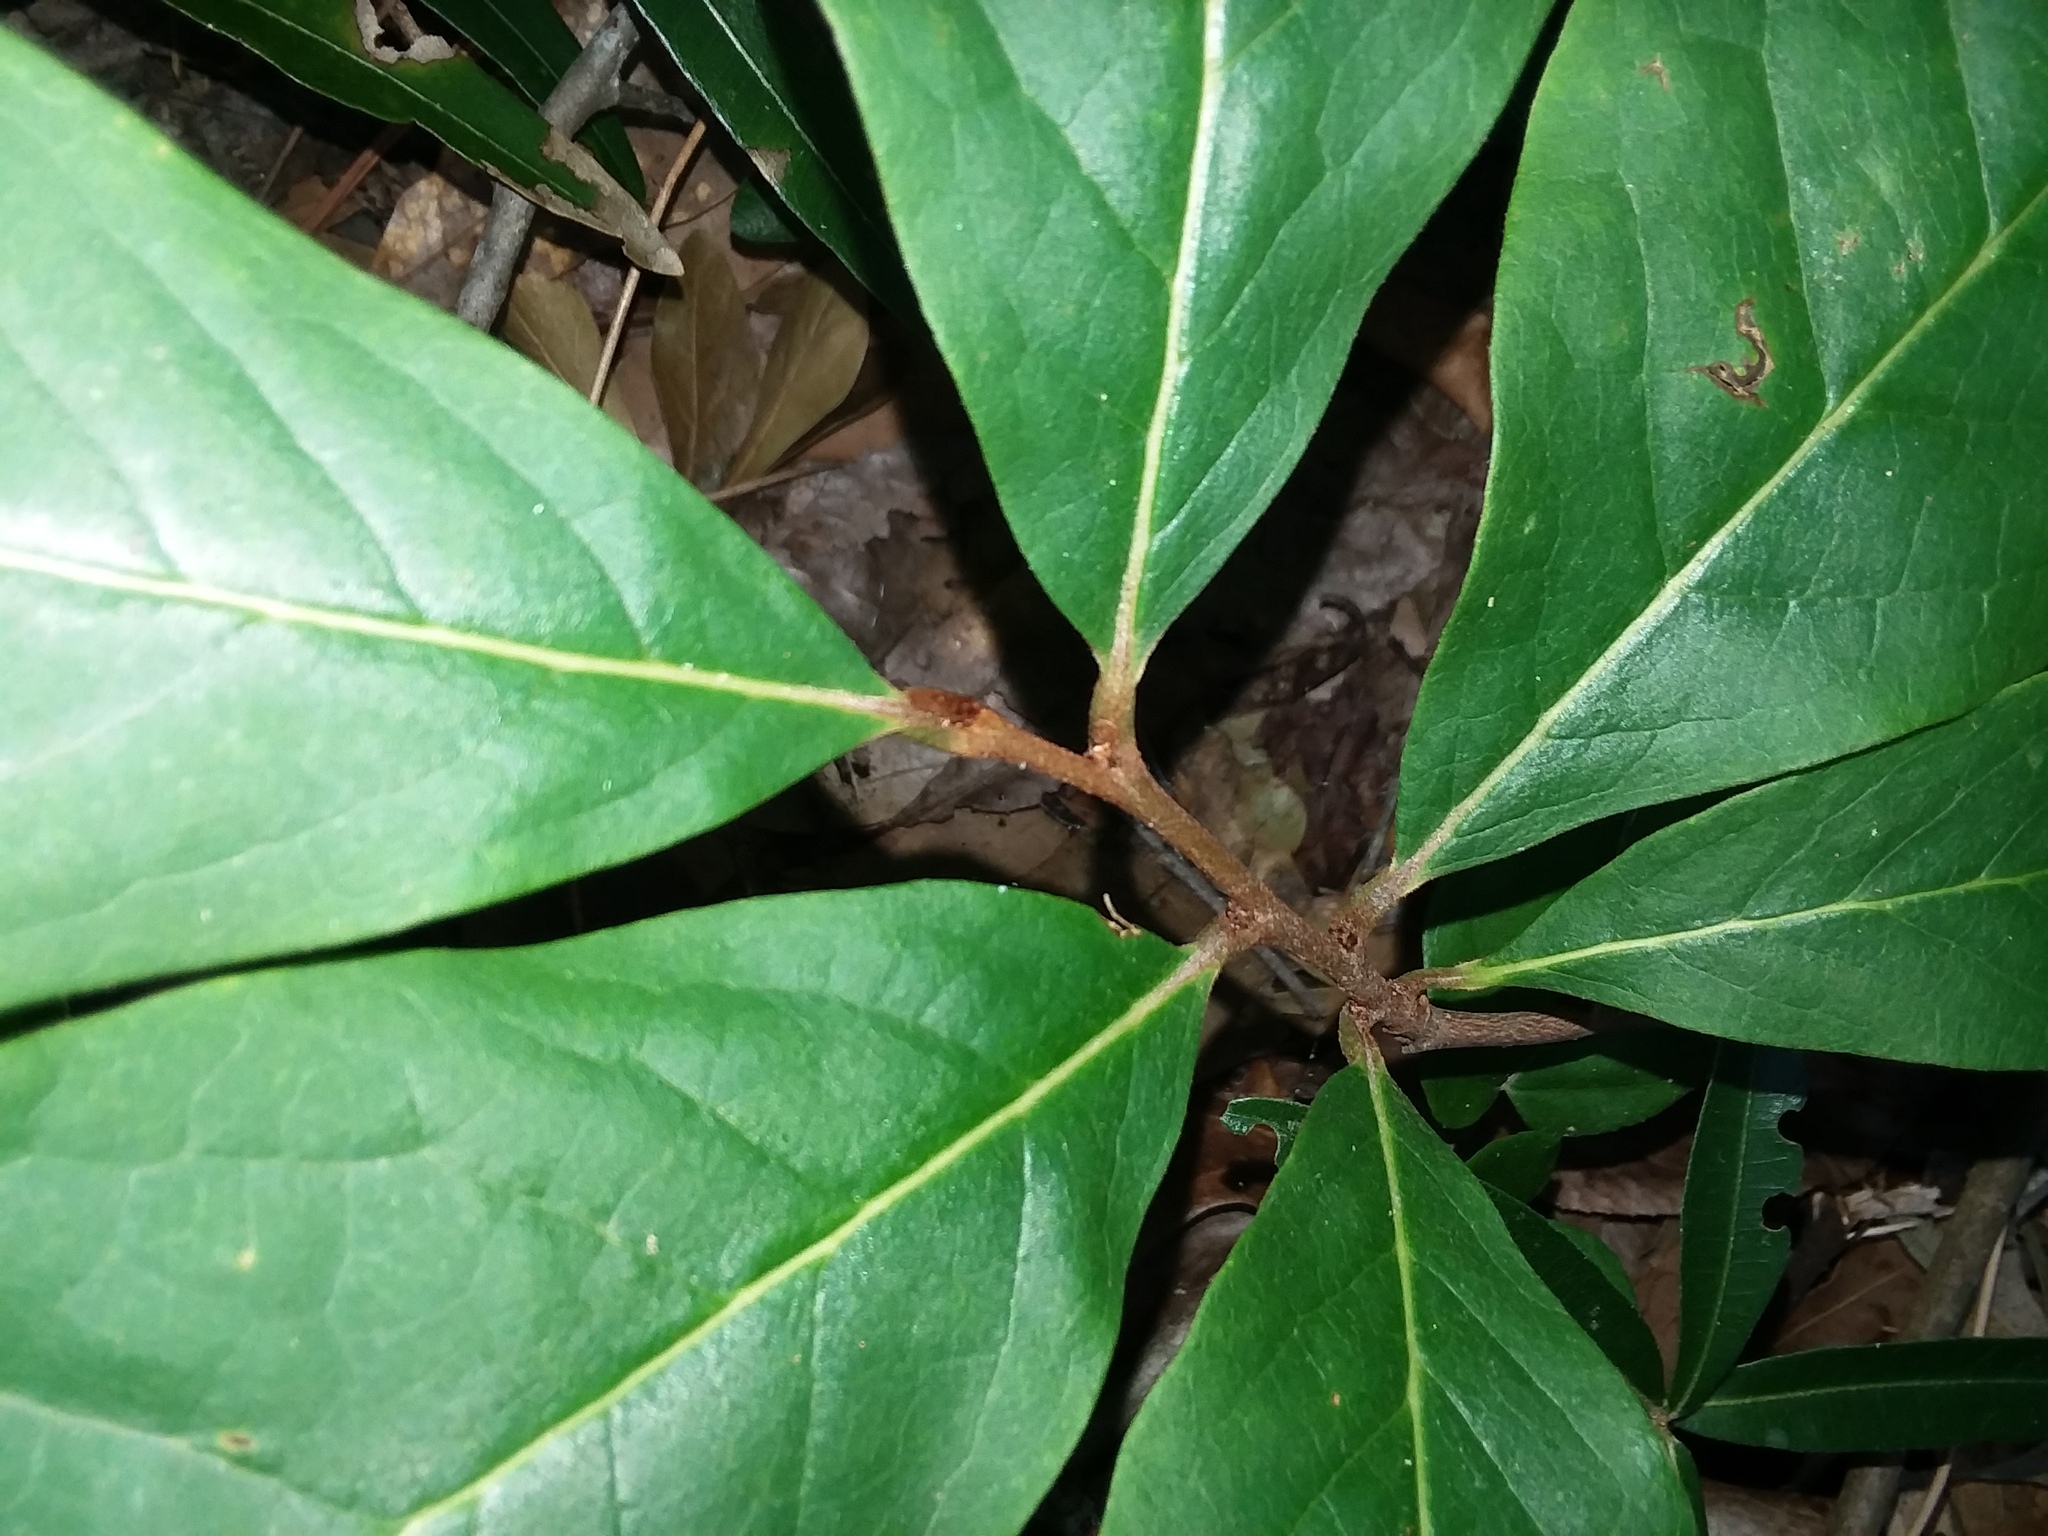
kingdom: Plantae
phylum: Tracheophyta
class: Magnoliopsida
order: Magnoliales
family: Annonaceae
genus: Asimina
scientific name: Asimina parviflora
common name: Dwarf pawpaw
